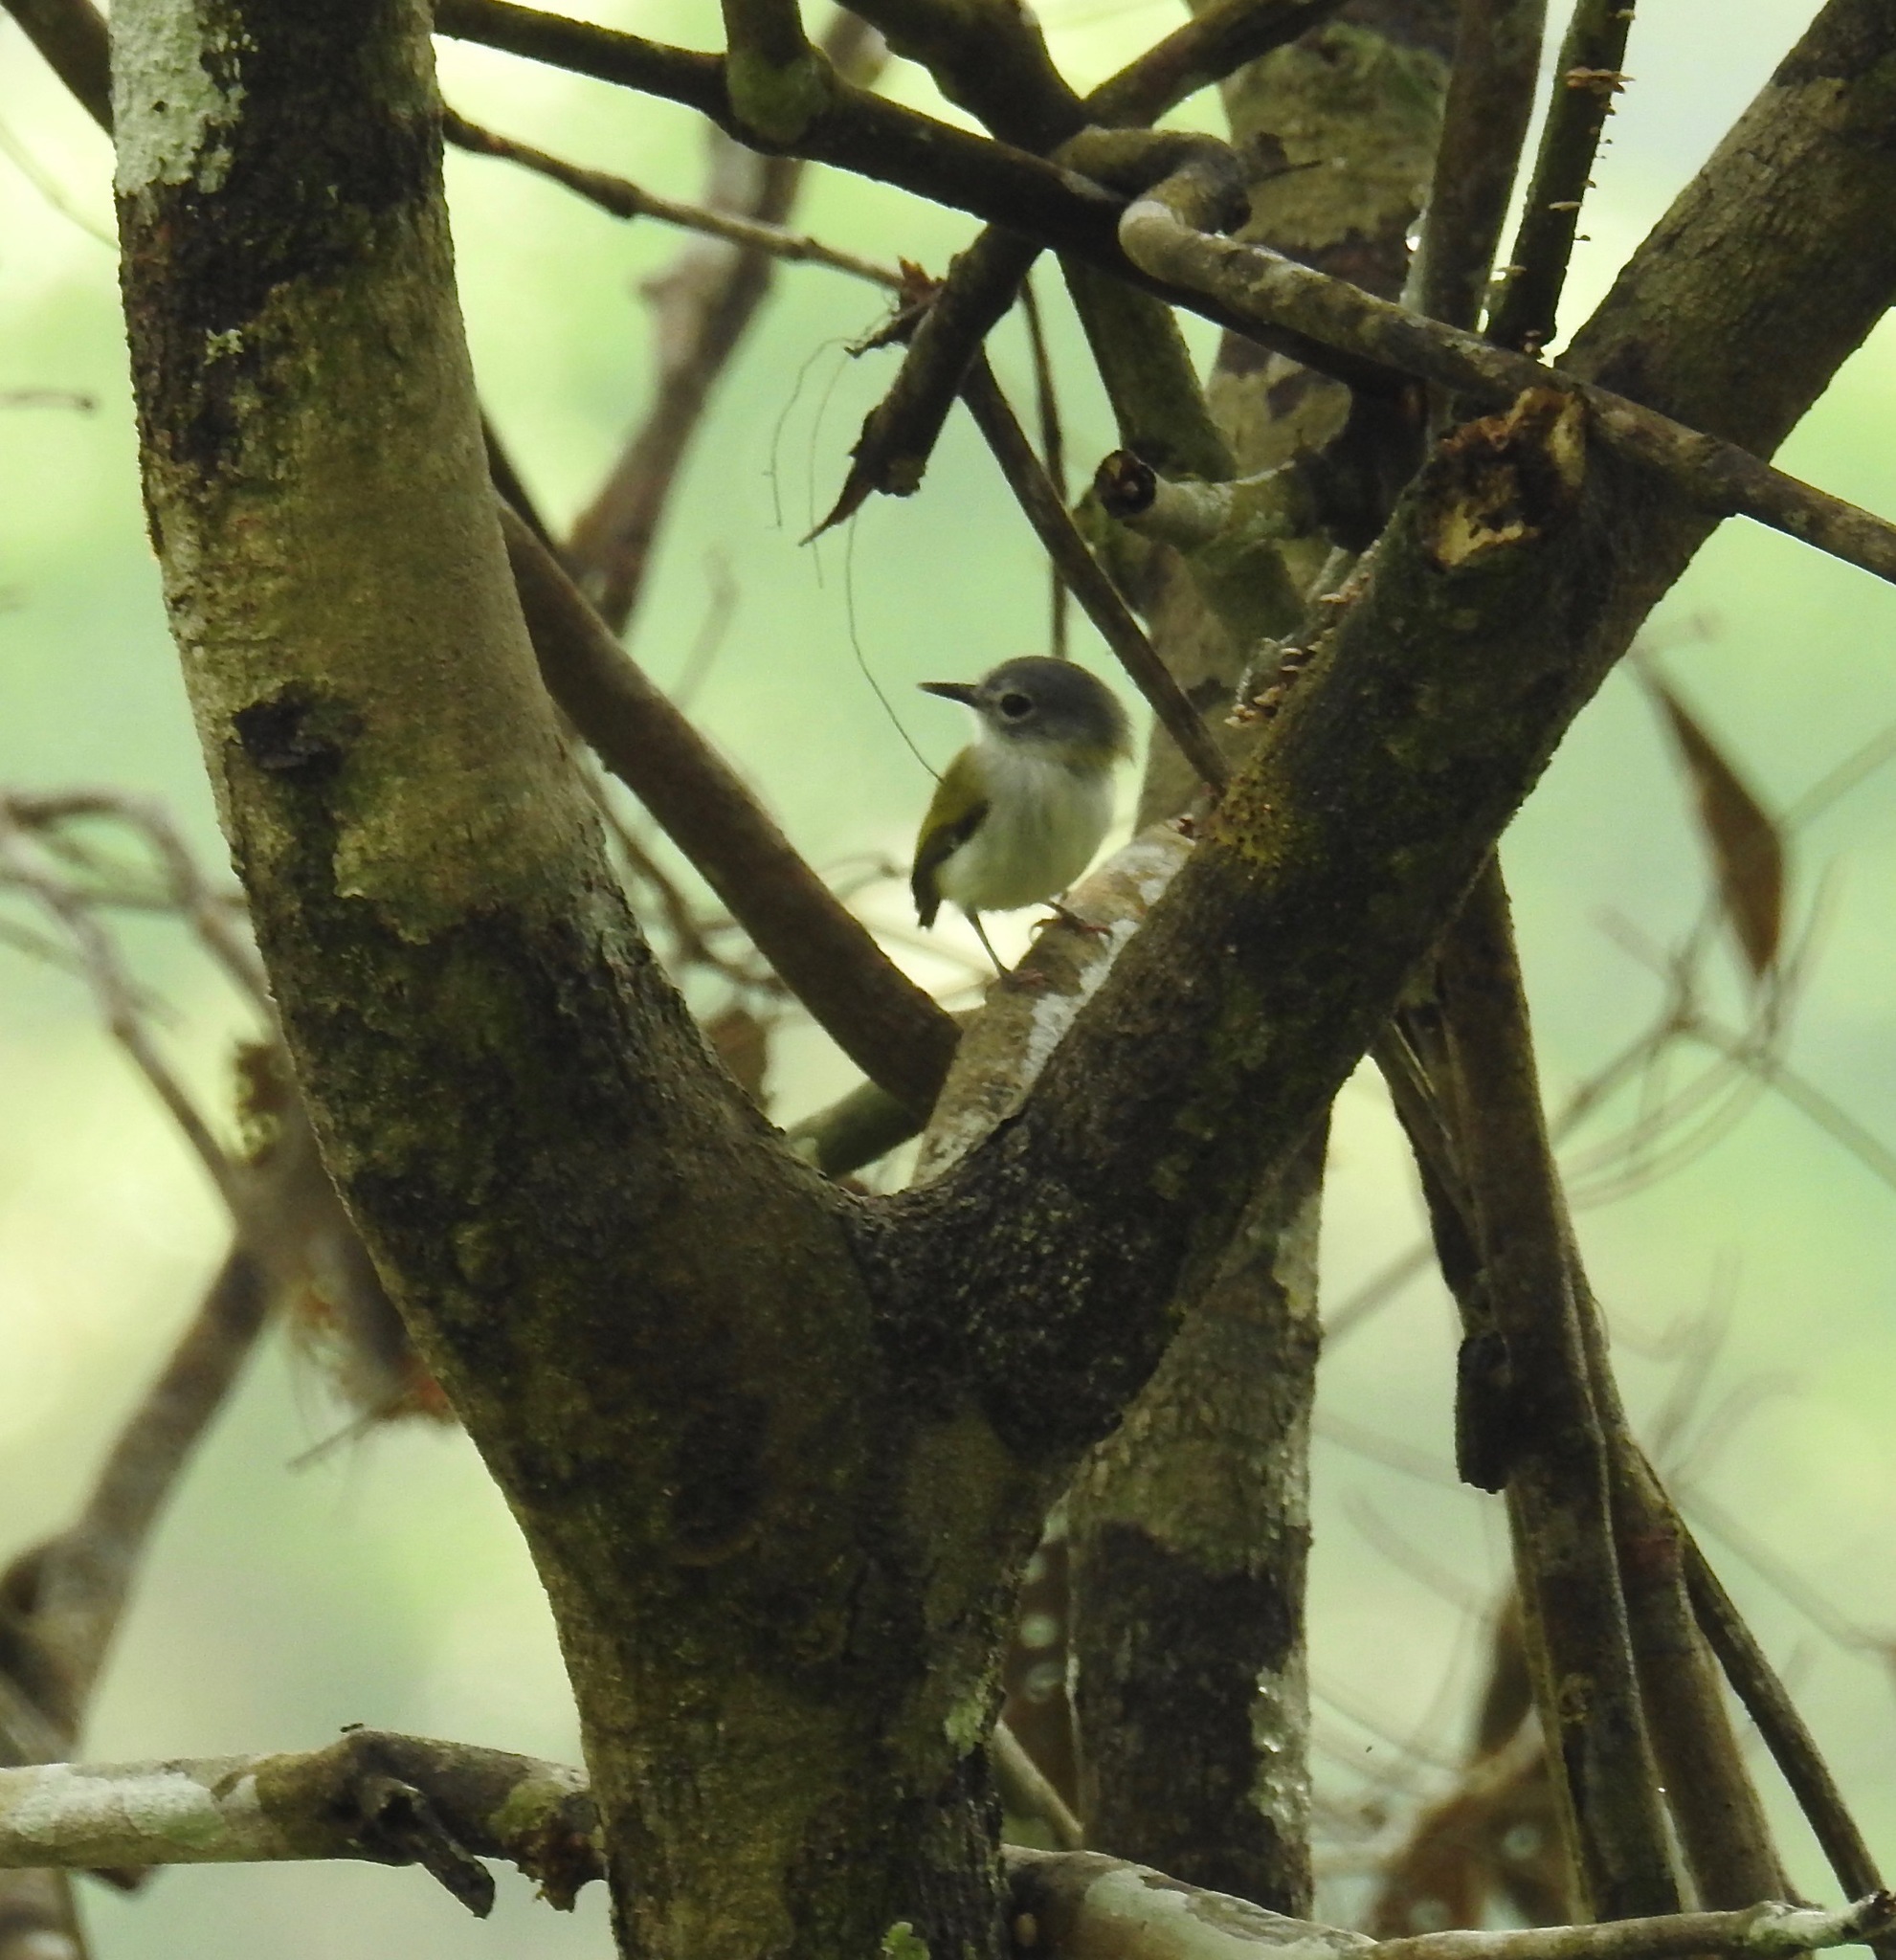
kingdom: Animalia
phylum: Chordata
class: Aves
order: Passeriformes
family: Tyrannidae
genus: Myiornis
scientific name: Myiornis ecaudatus
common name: Short-tailed pygmy tyrant
